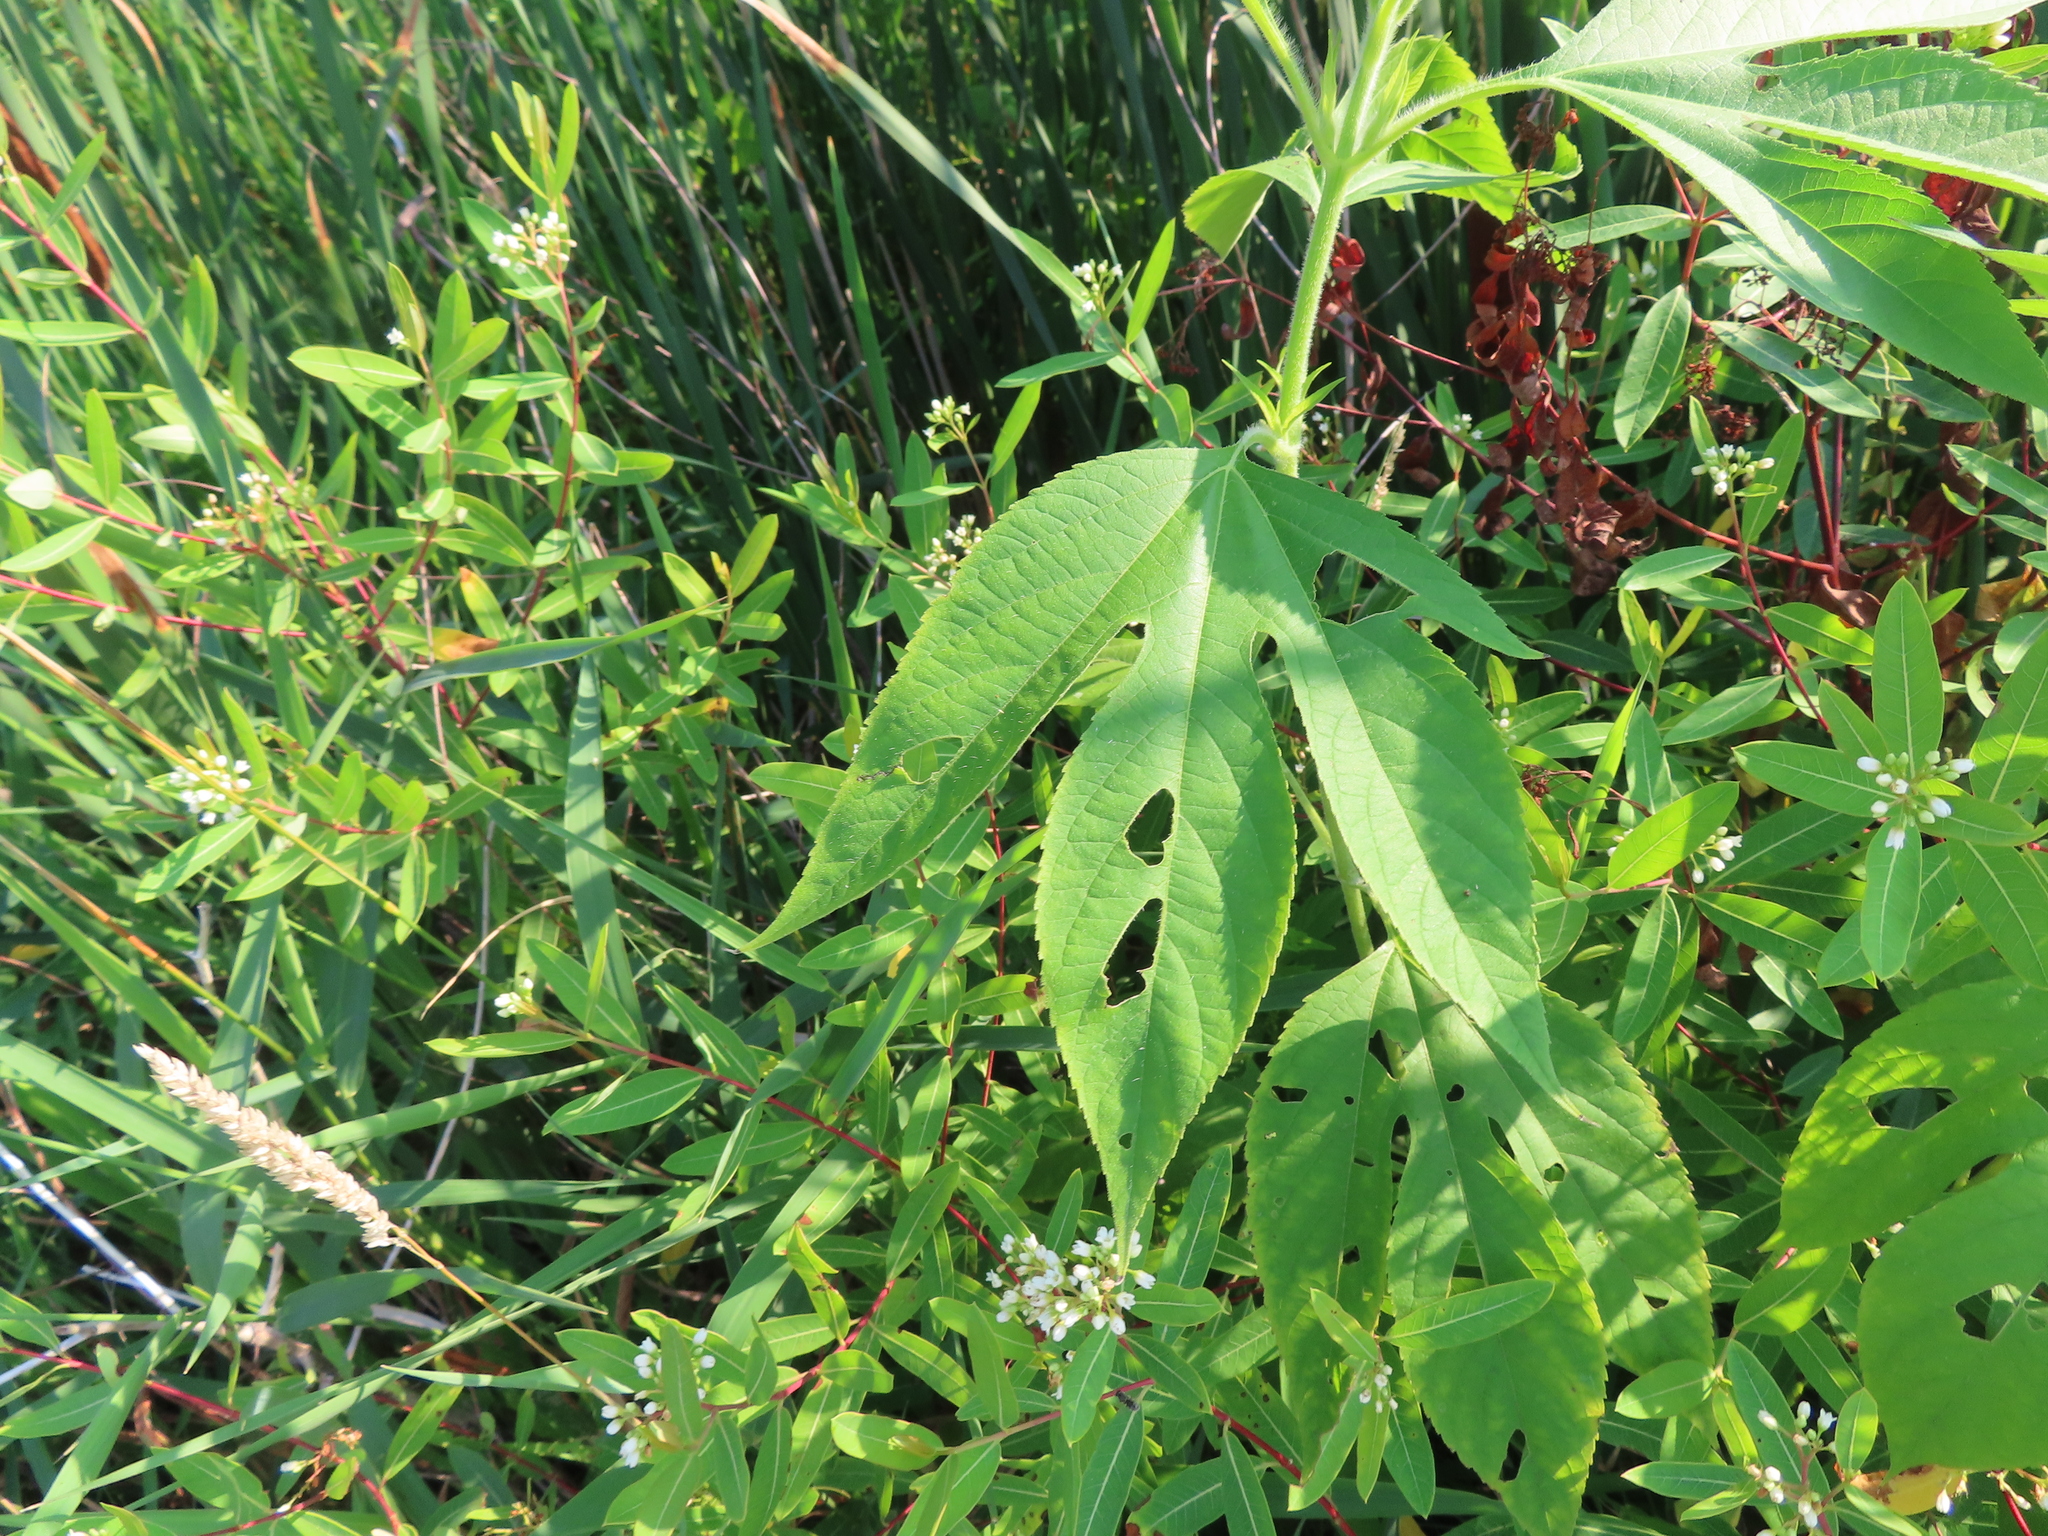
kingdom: Plantae
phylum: Tracheophyta
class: Magnoliopsida
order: Asterales
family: Asteraceae
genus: Ambrosia
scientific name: Ambrosia trifida
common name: Giant ragweed
